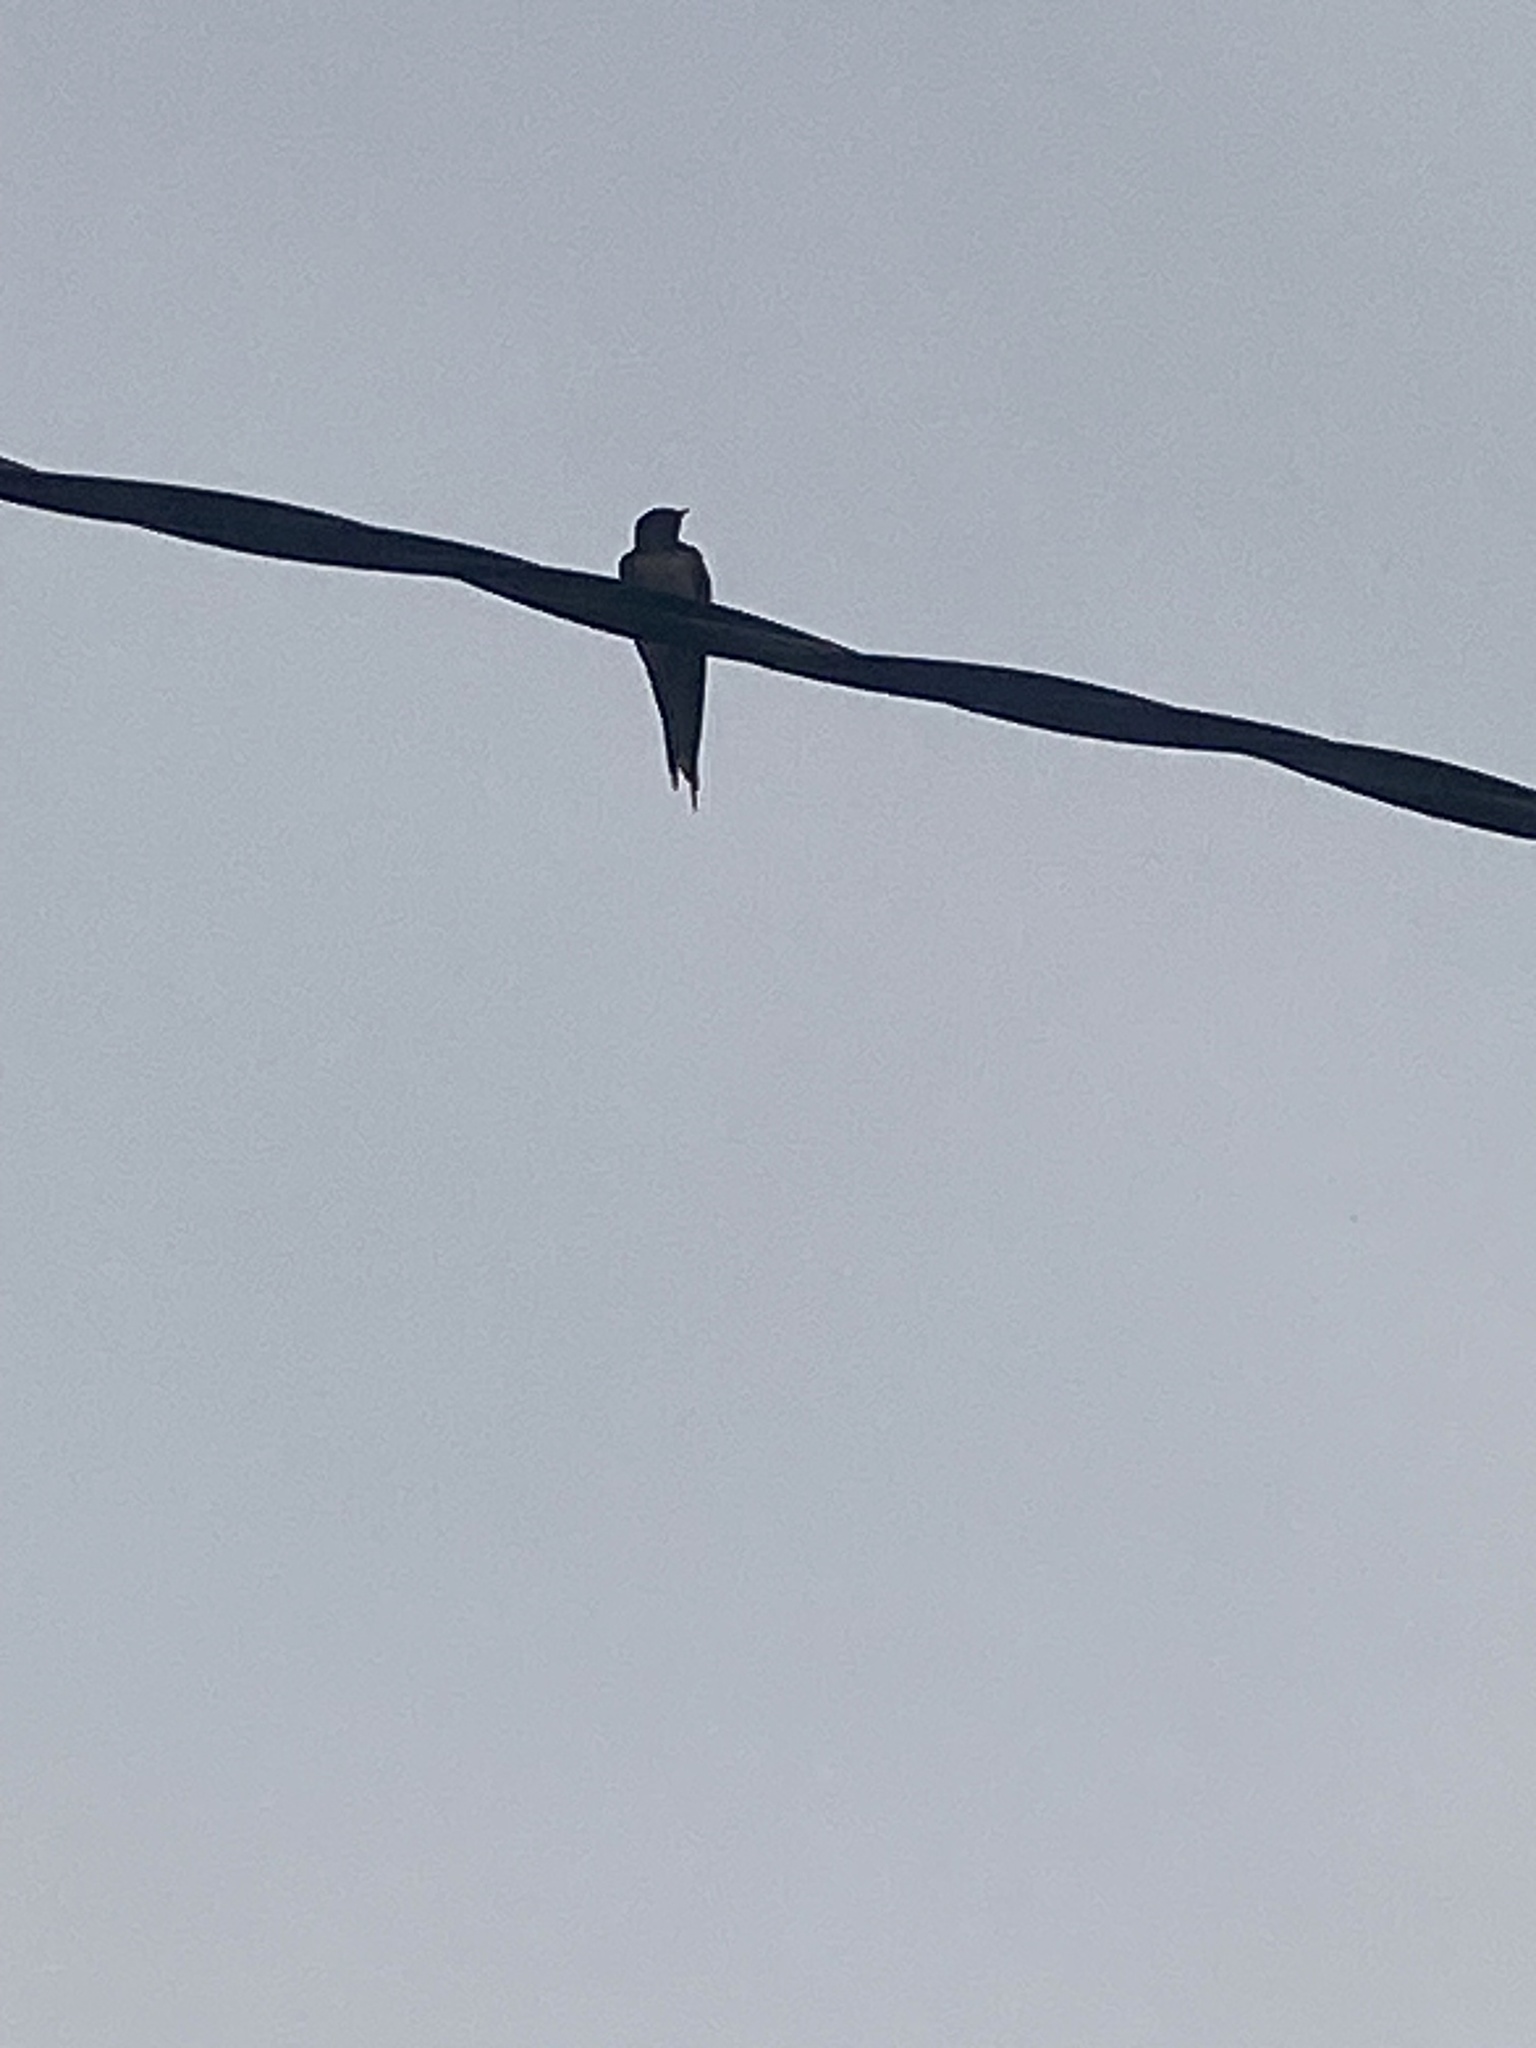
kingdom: Animalia
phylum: Chordata
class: Aves
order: Passeriformes
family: Hirundinidae
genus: Hirundo
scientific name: Hirundo albigularis
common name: White-throated swallow
